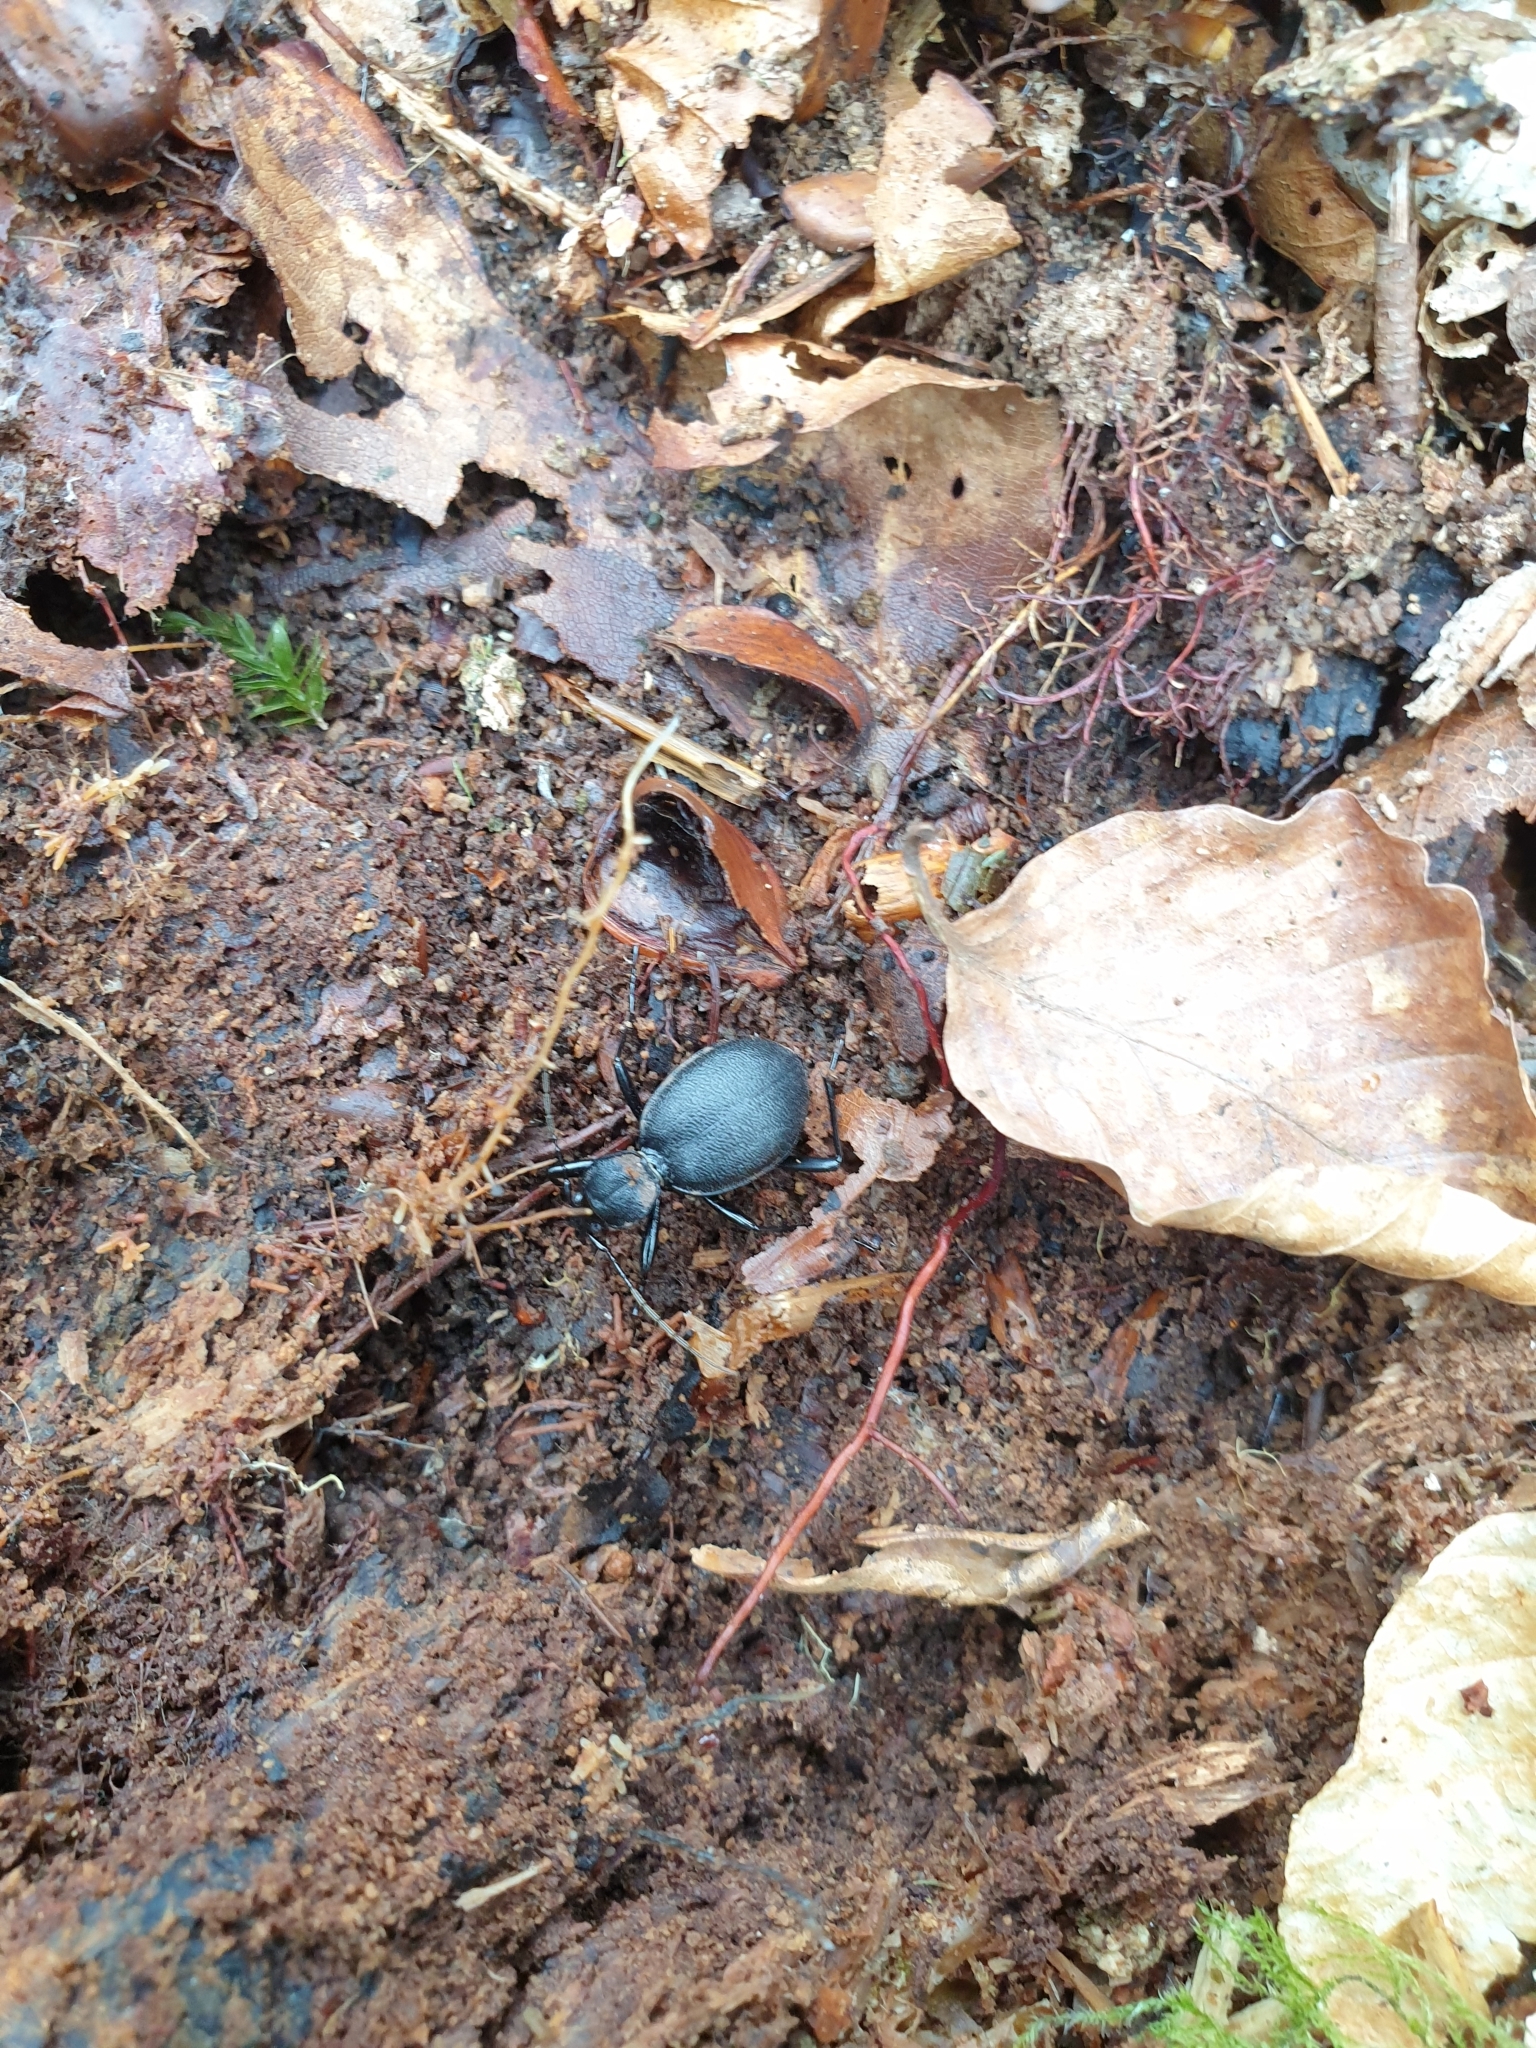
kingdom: Animalia
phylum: Arthropoda
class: Insecta
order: Coleoptera
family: Carabidae
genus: Cychrus
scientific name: Cychrus caraboides
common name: Snail hunter
